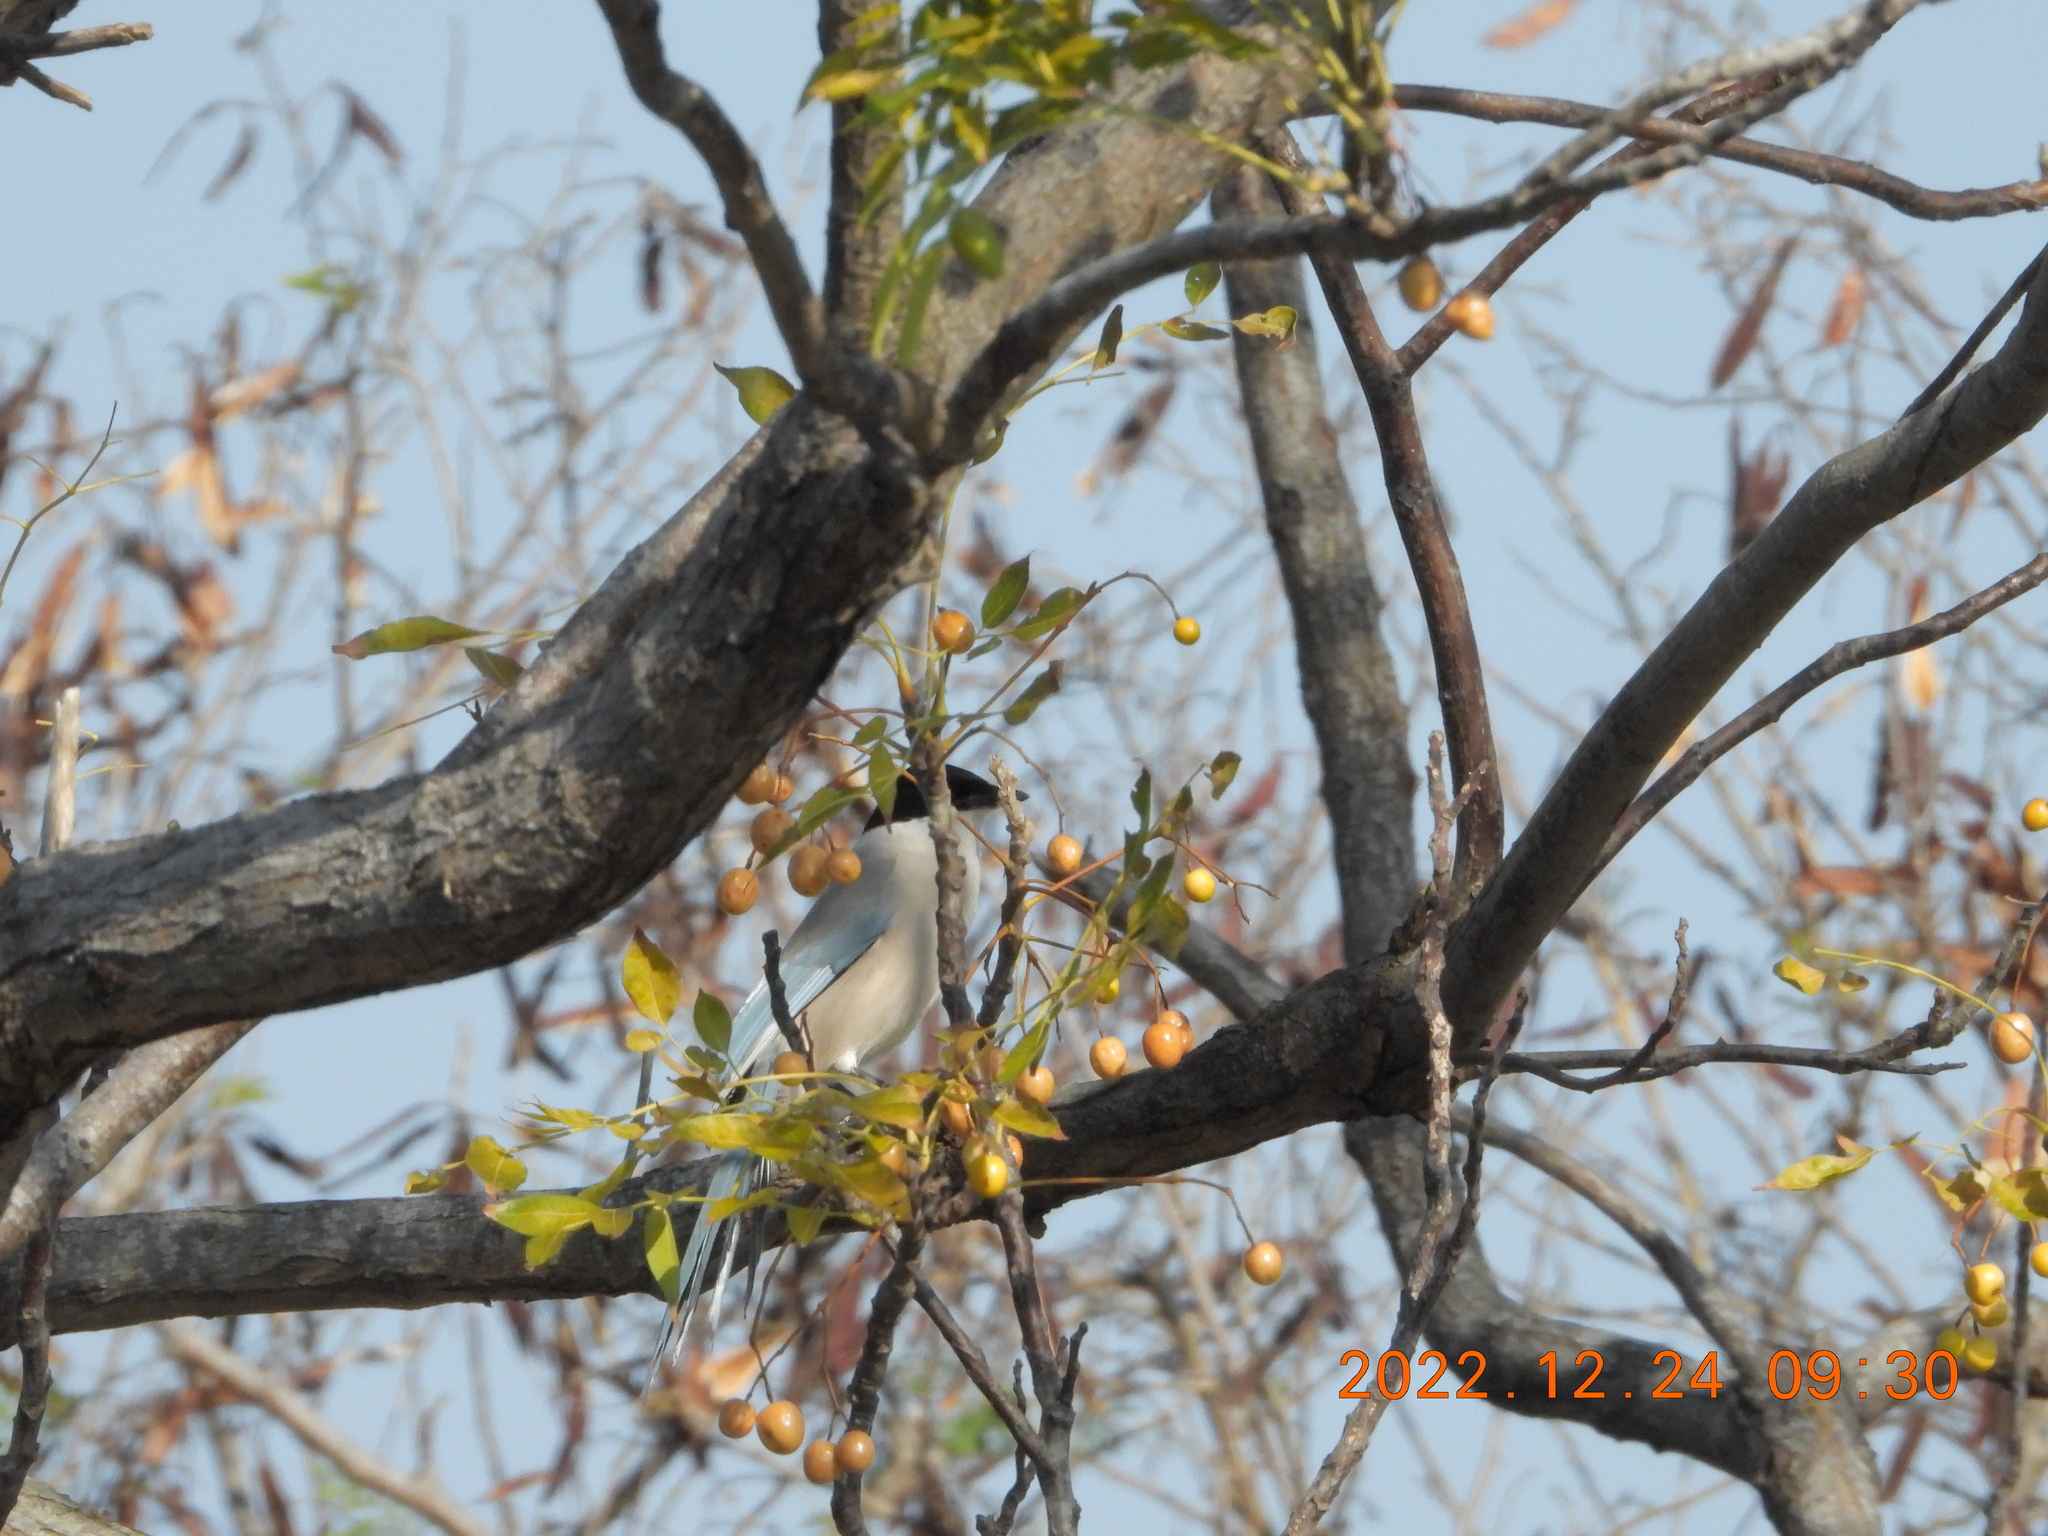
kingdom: Animalia
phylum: Chordata
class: Aves
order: Passeriformes
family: Corvidae
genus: Cyanopica
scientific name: Cyanopica cyanus
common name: Azure-winged magpie
